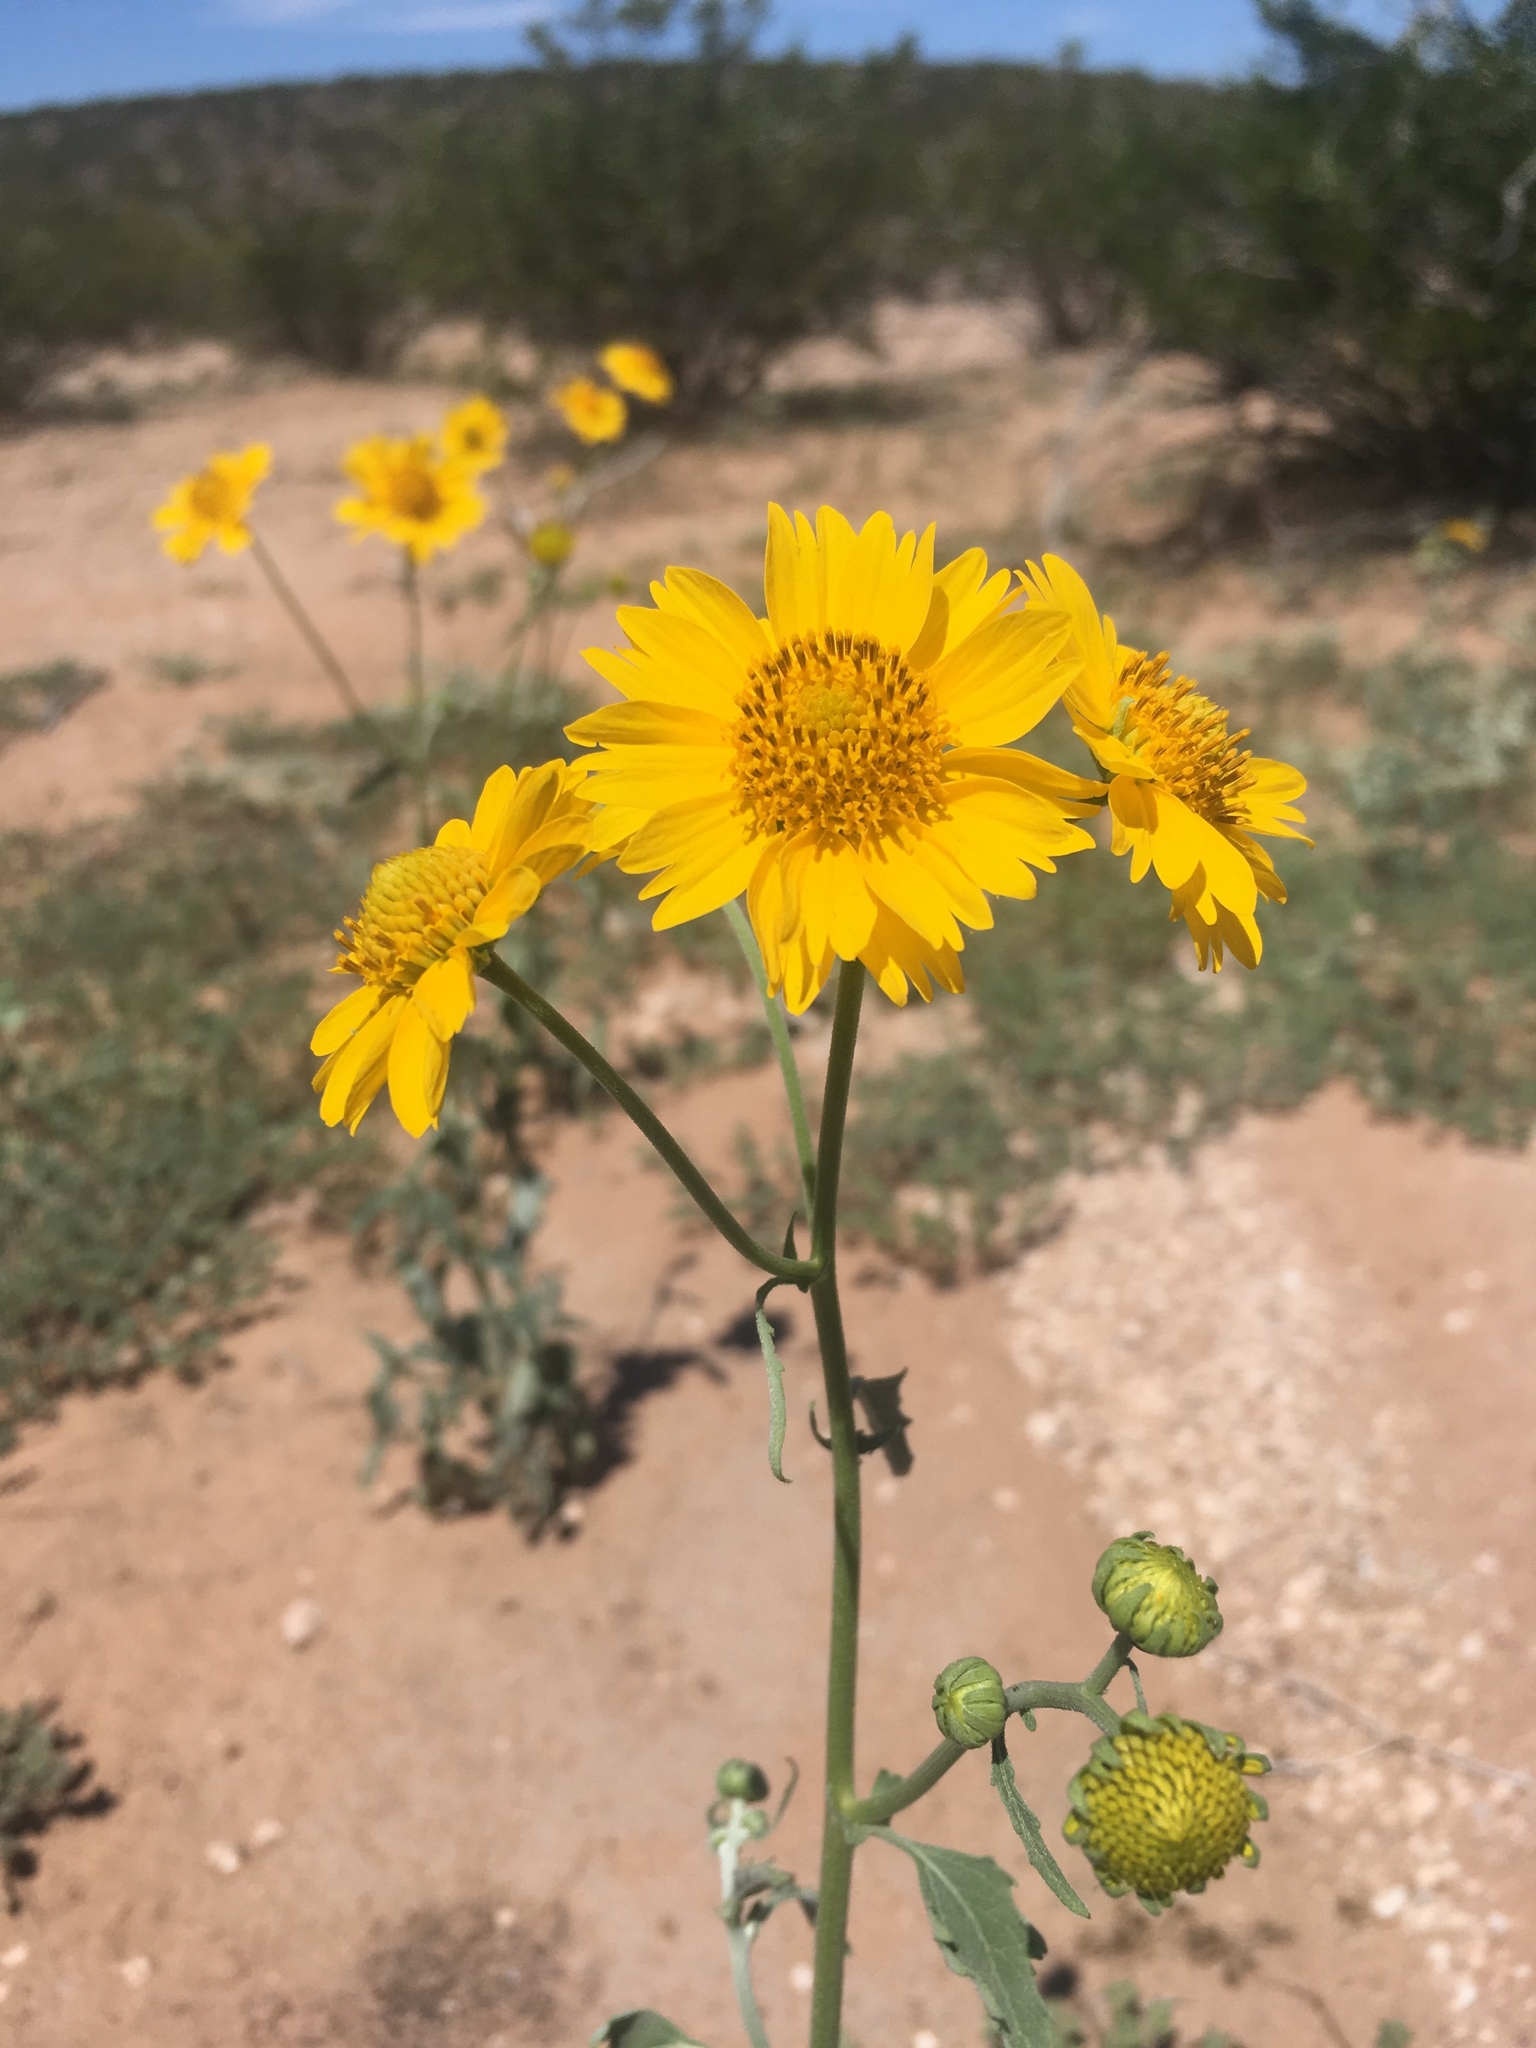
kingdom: Plantae
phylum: Tracheophyta
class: Magnoliopsida
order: Asterales
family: Asteraceae
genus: Verbesina
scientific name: Verbesina encelioides
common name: Golden crownbeard
